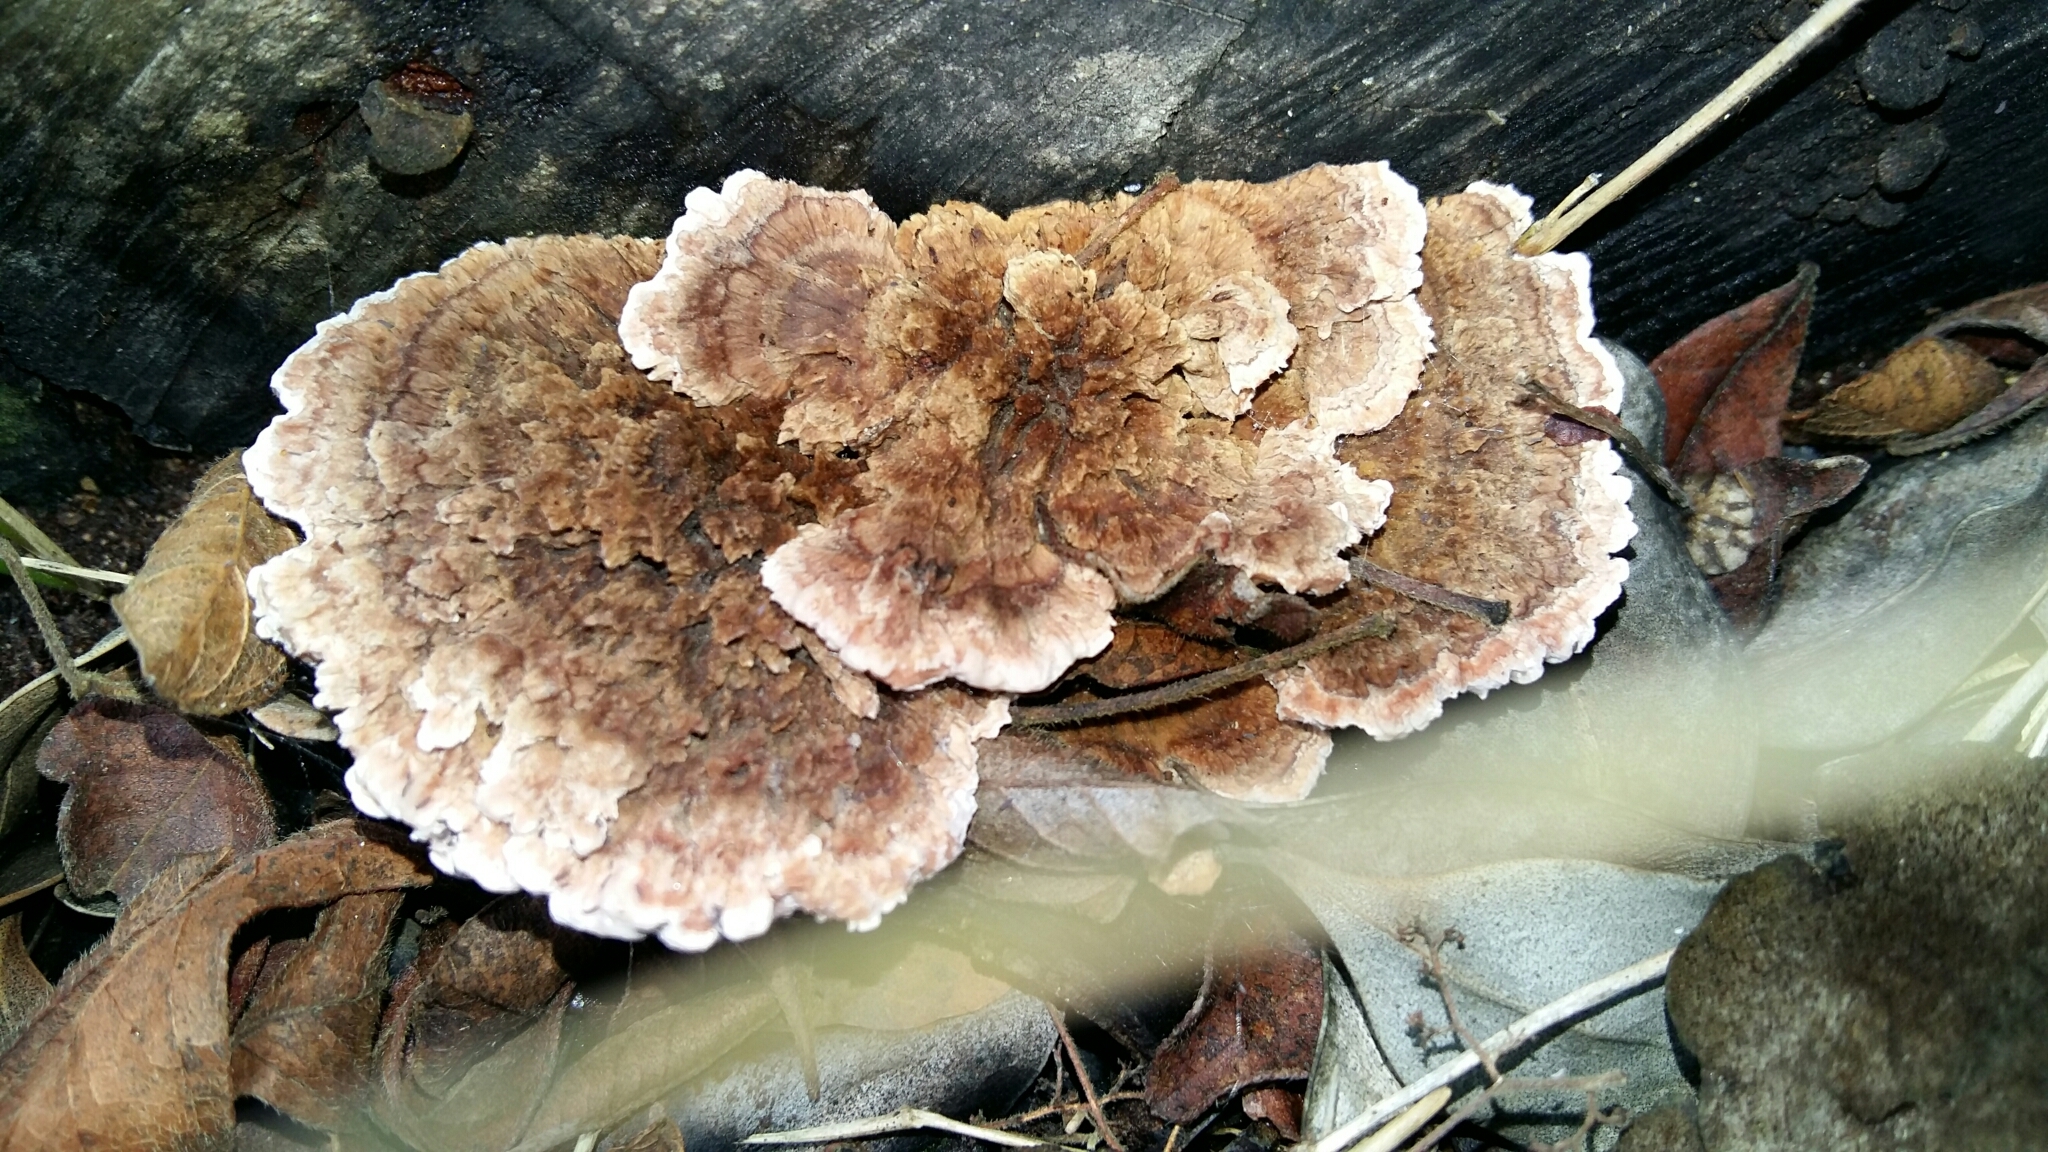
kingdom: Fungi
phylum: Basidiomycota
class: Agaricomycetes
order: Polyporales
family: Fomitopsidaceae
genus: Rhodofomitopsis
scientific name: Rhodofomitopsis lilacinogilva
